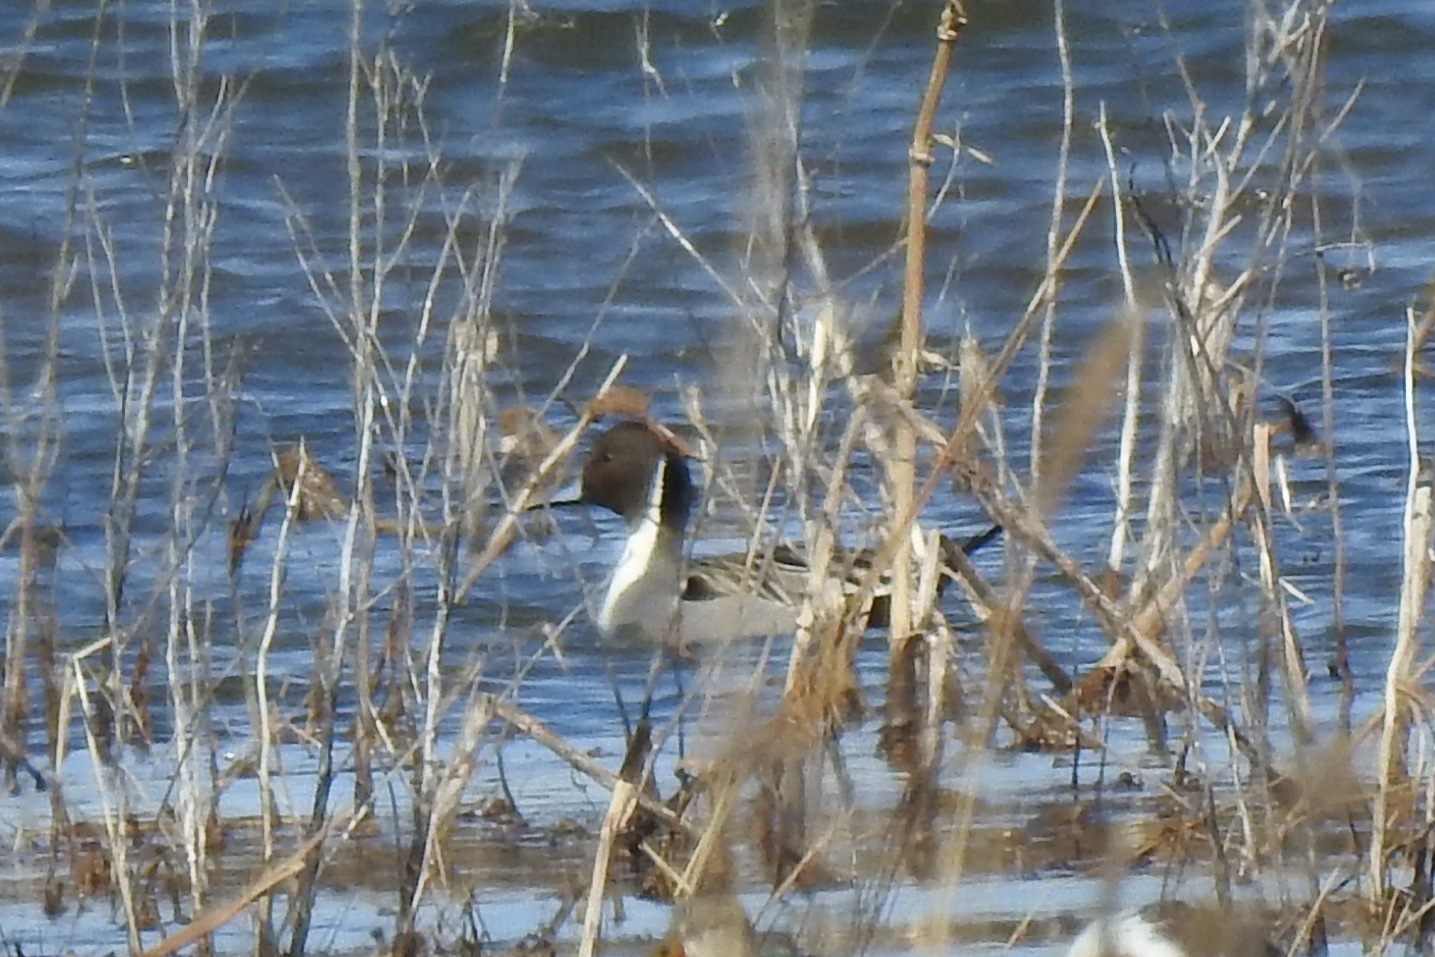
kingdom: Animalia
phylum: Chordata
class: Aves
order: Anseriformes
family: Anatidae
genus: Anas
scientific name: Anas acuta
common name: Northern pintail
